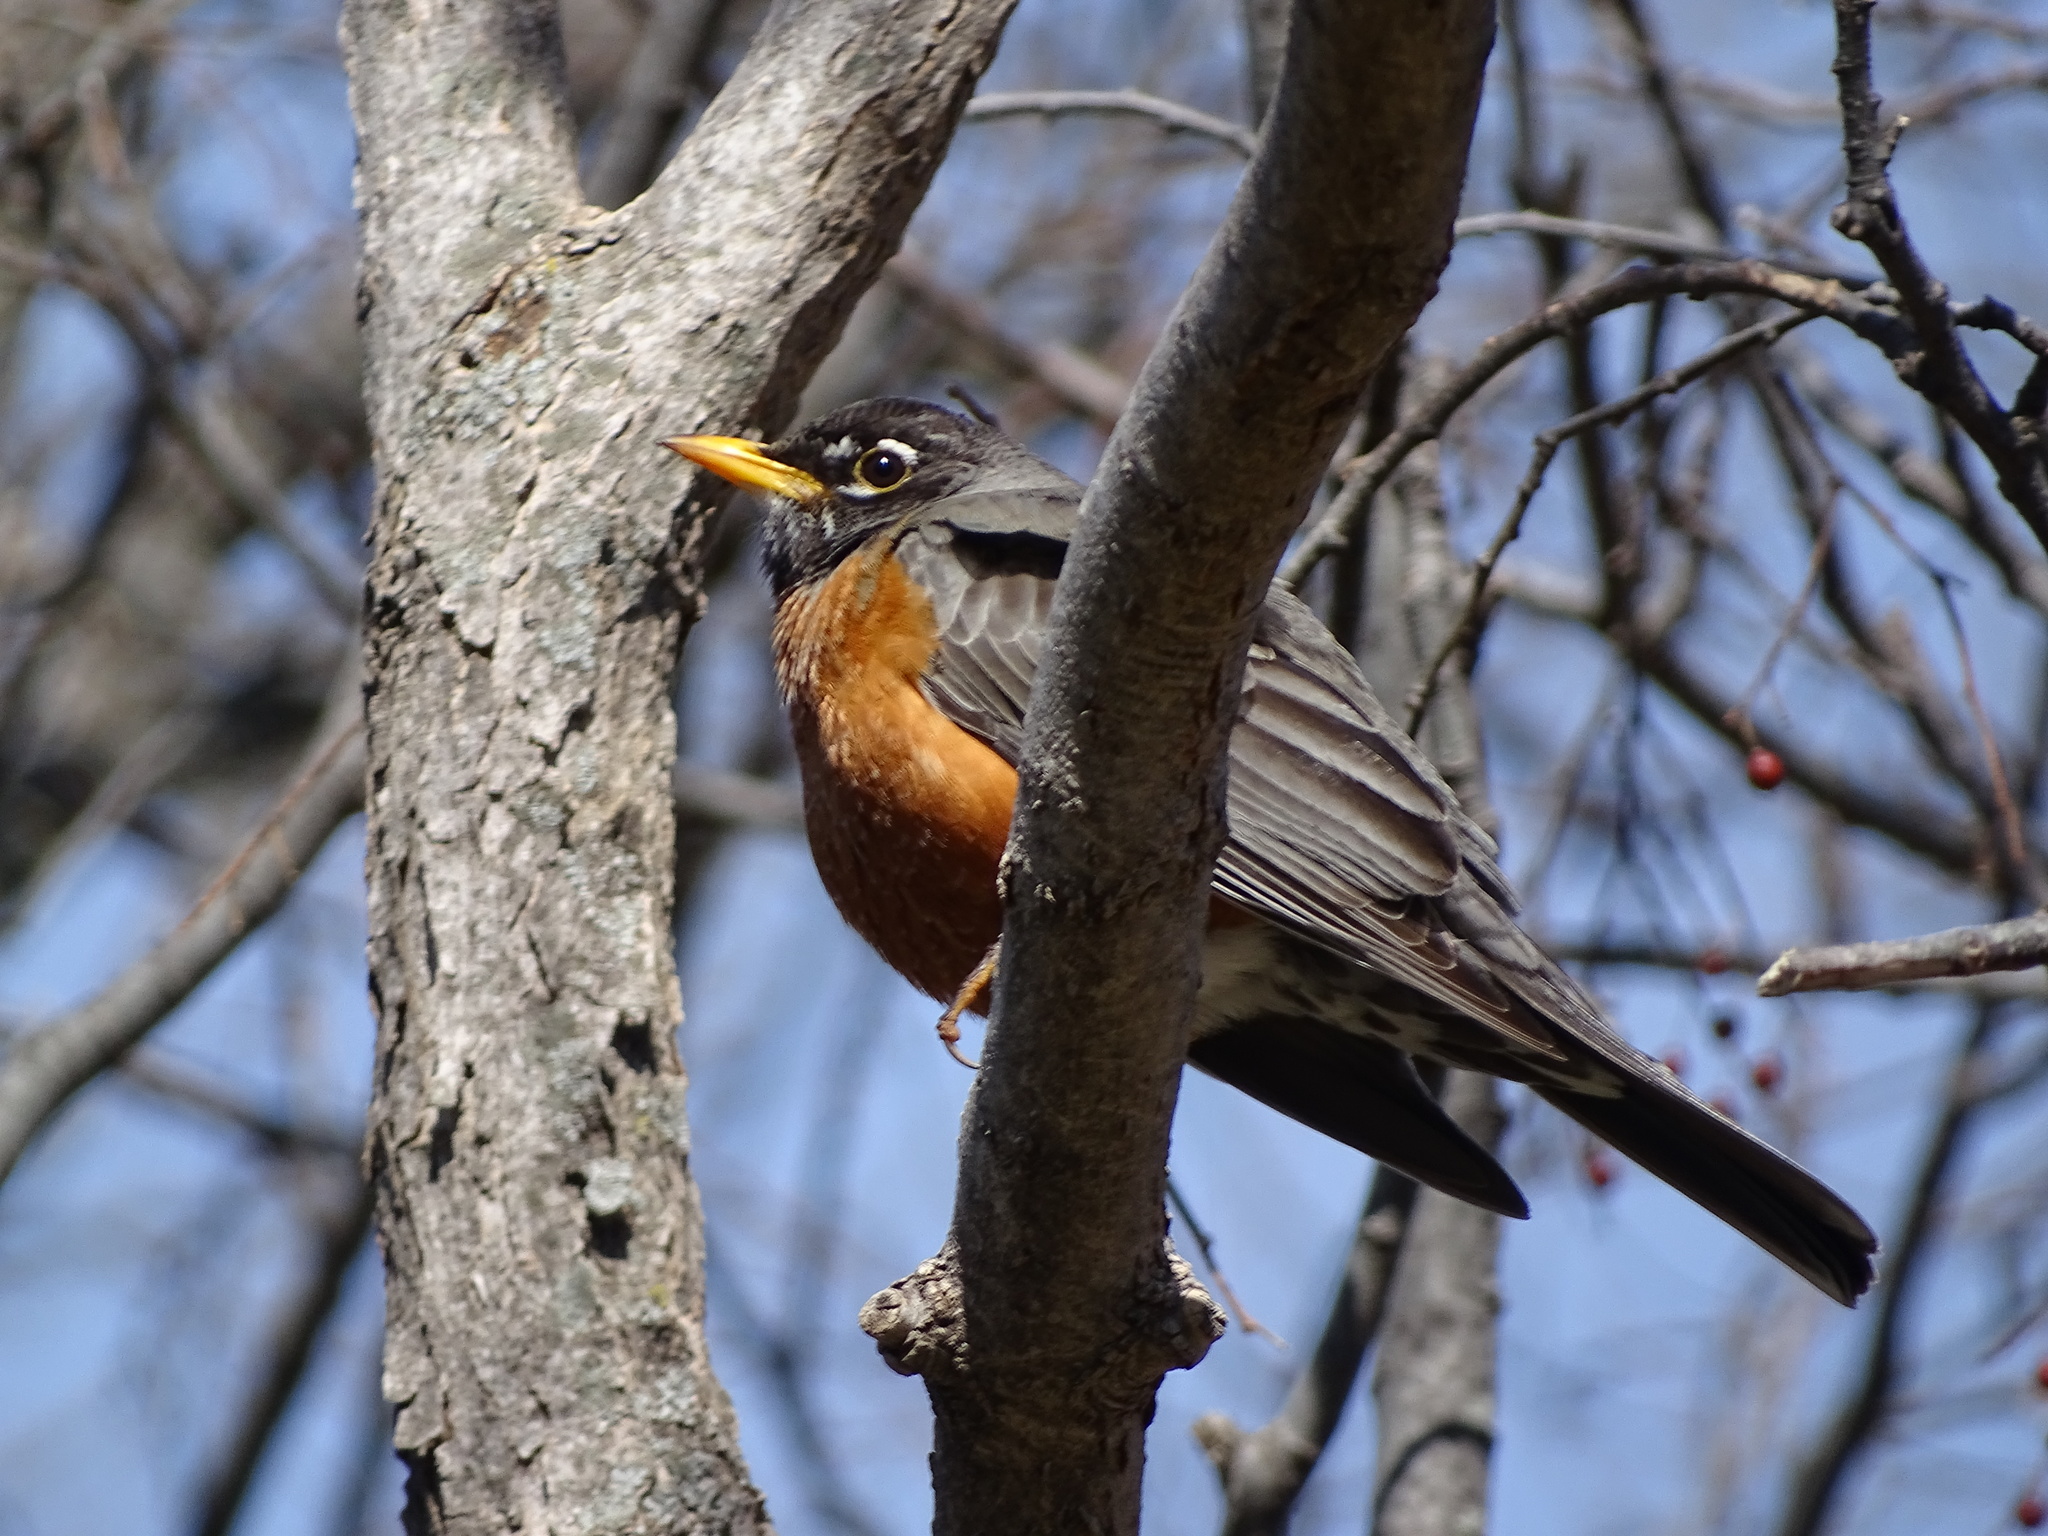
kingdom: Animalia
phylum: Chordata
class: Aves
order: Passeriformes
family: Turdidae
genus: Turdus
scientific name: Turdus migratorius
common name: American robin
